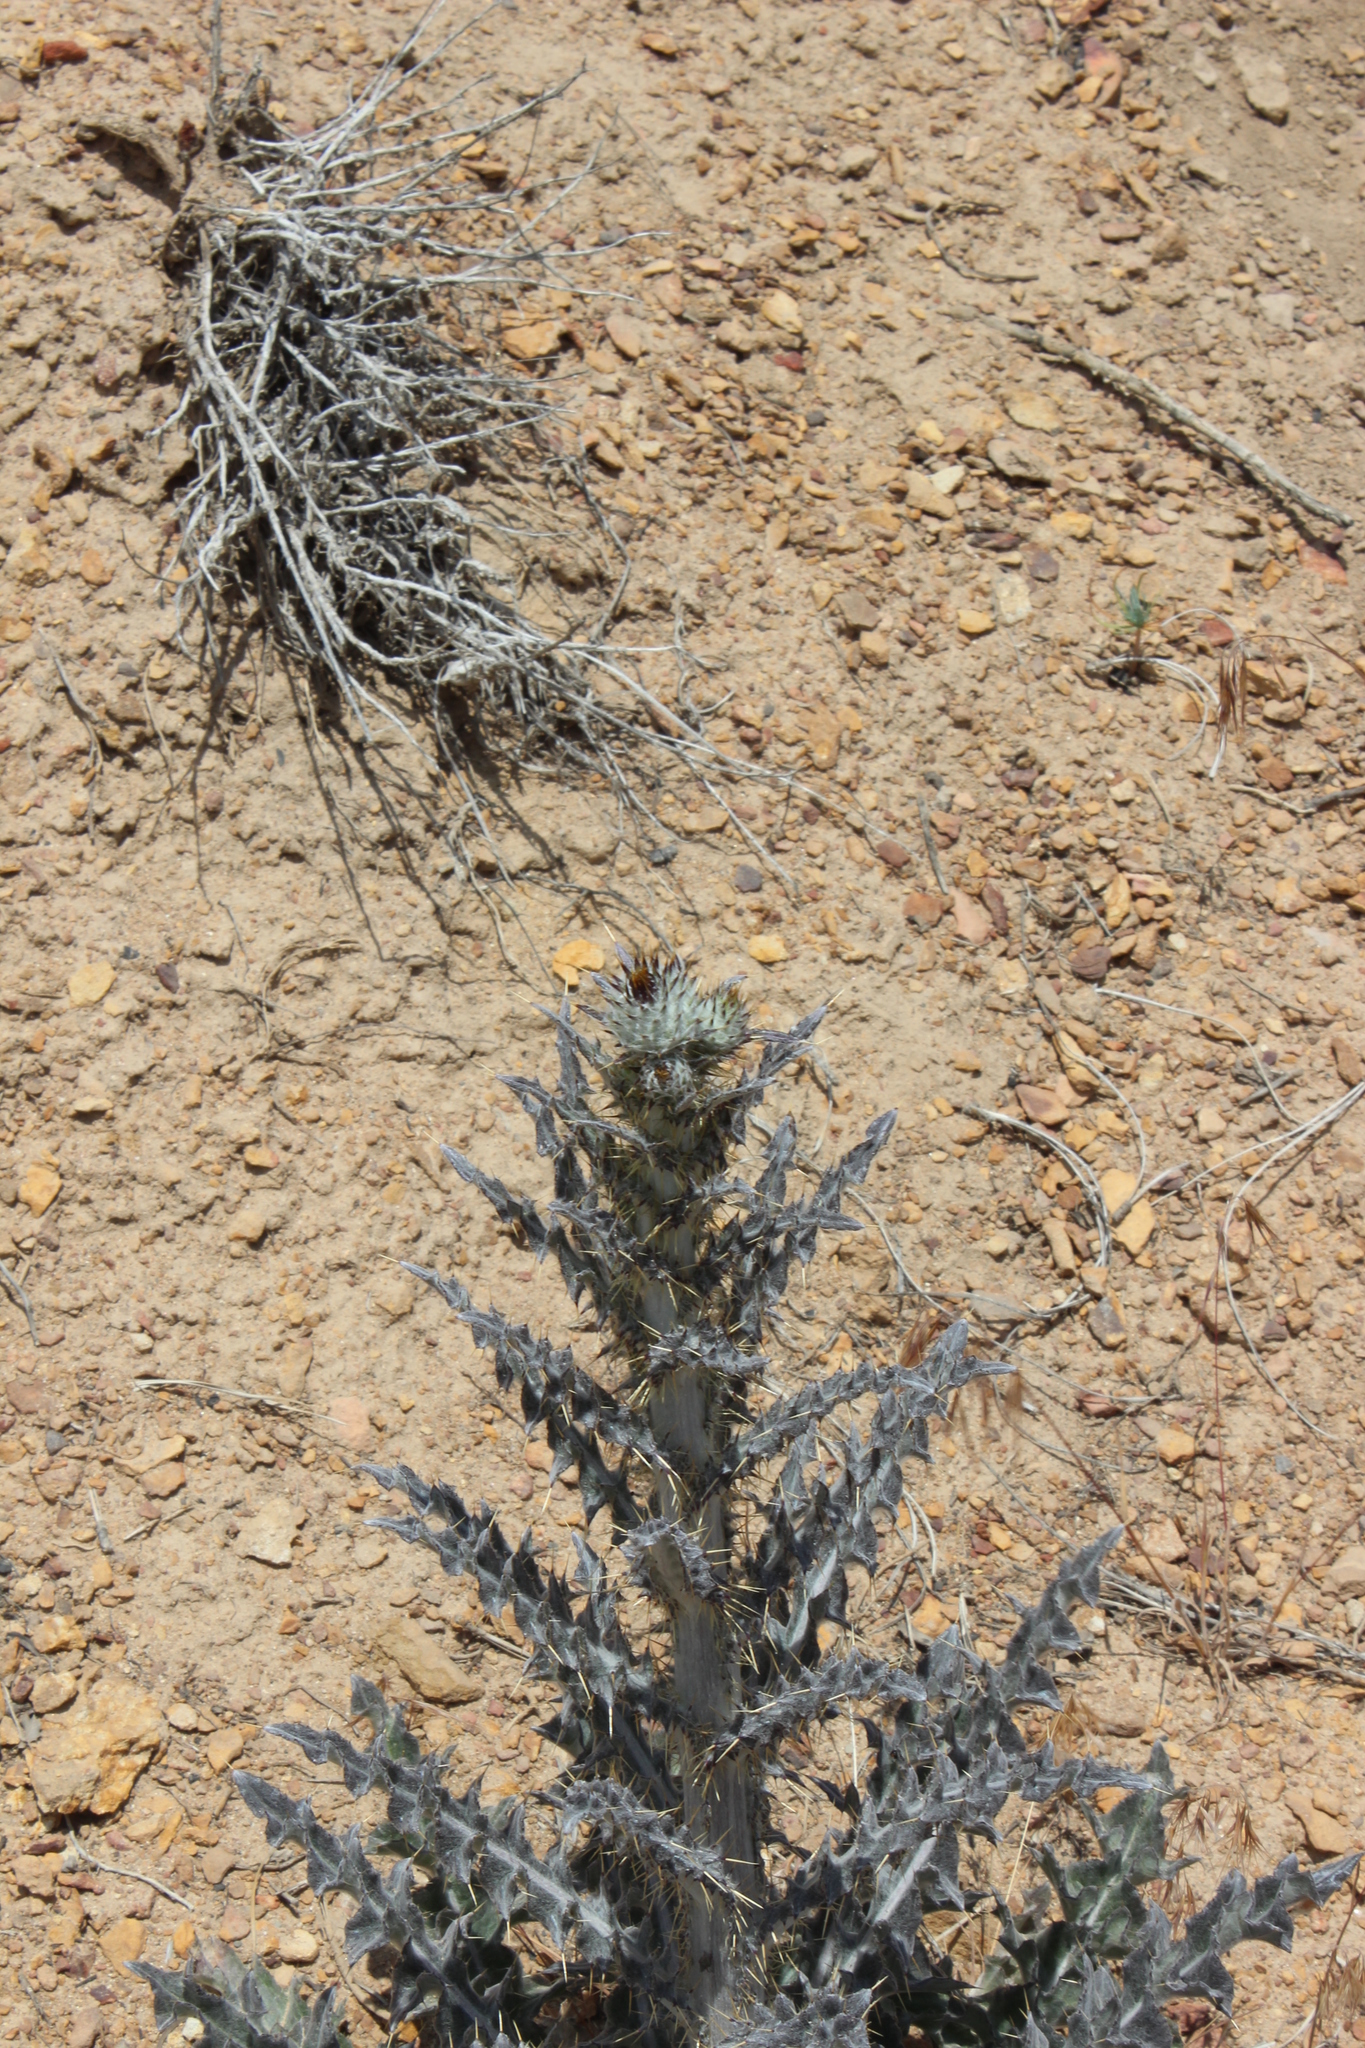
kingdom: Plantae
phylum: Tracheophyta
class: Magnoliopsida
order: Asterales
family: Asteraceae
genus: Cirsium
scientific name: Cirsium occidentale
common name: Western thistle
